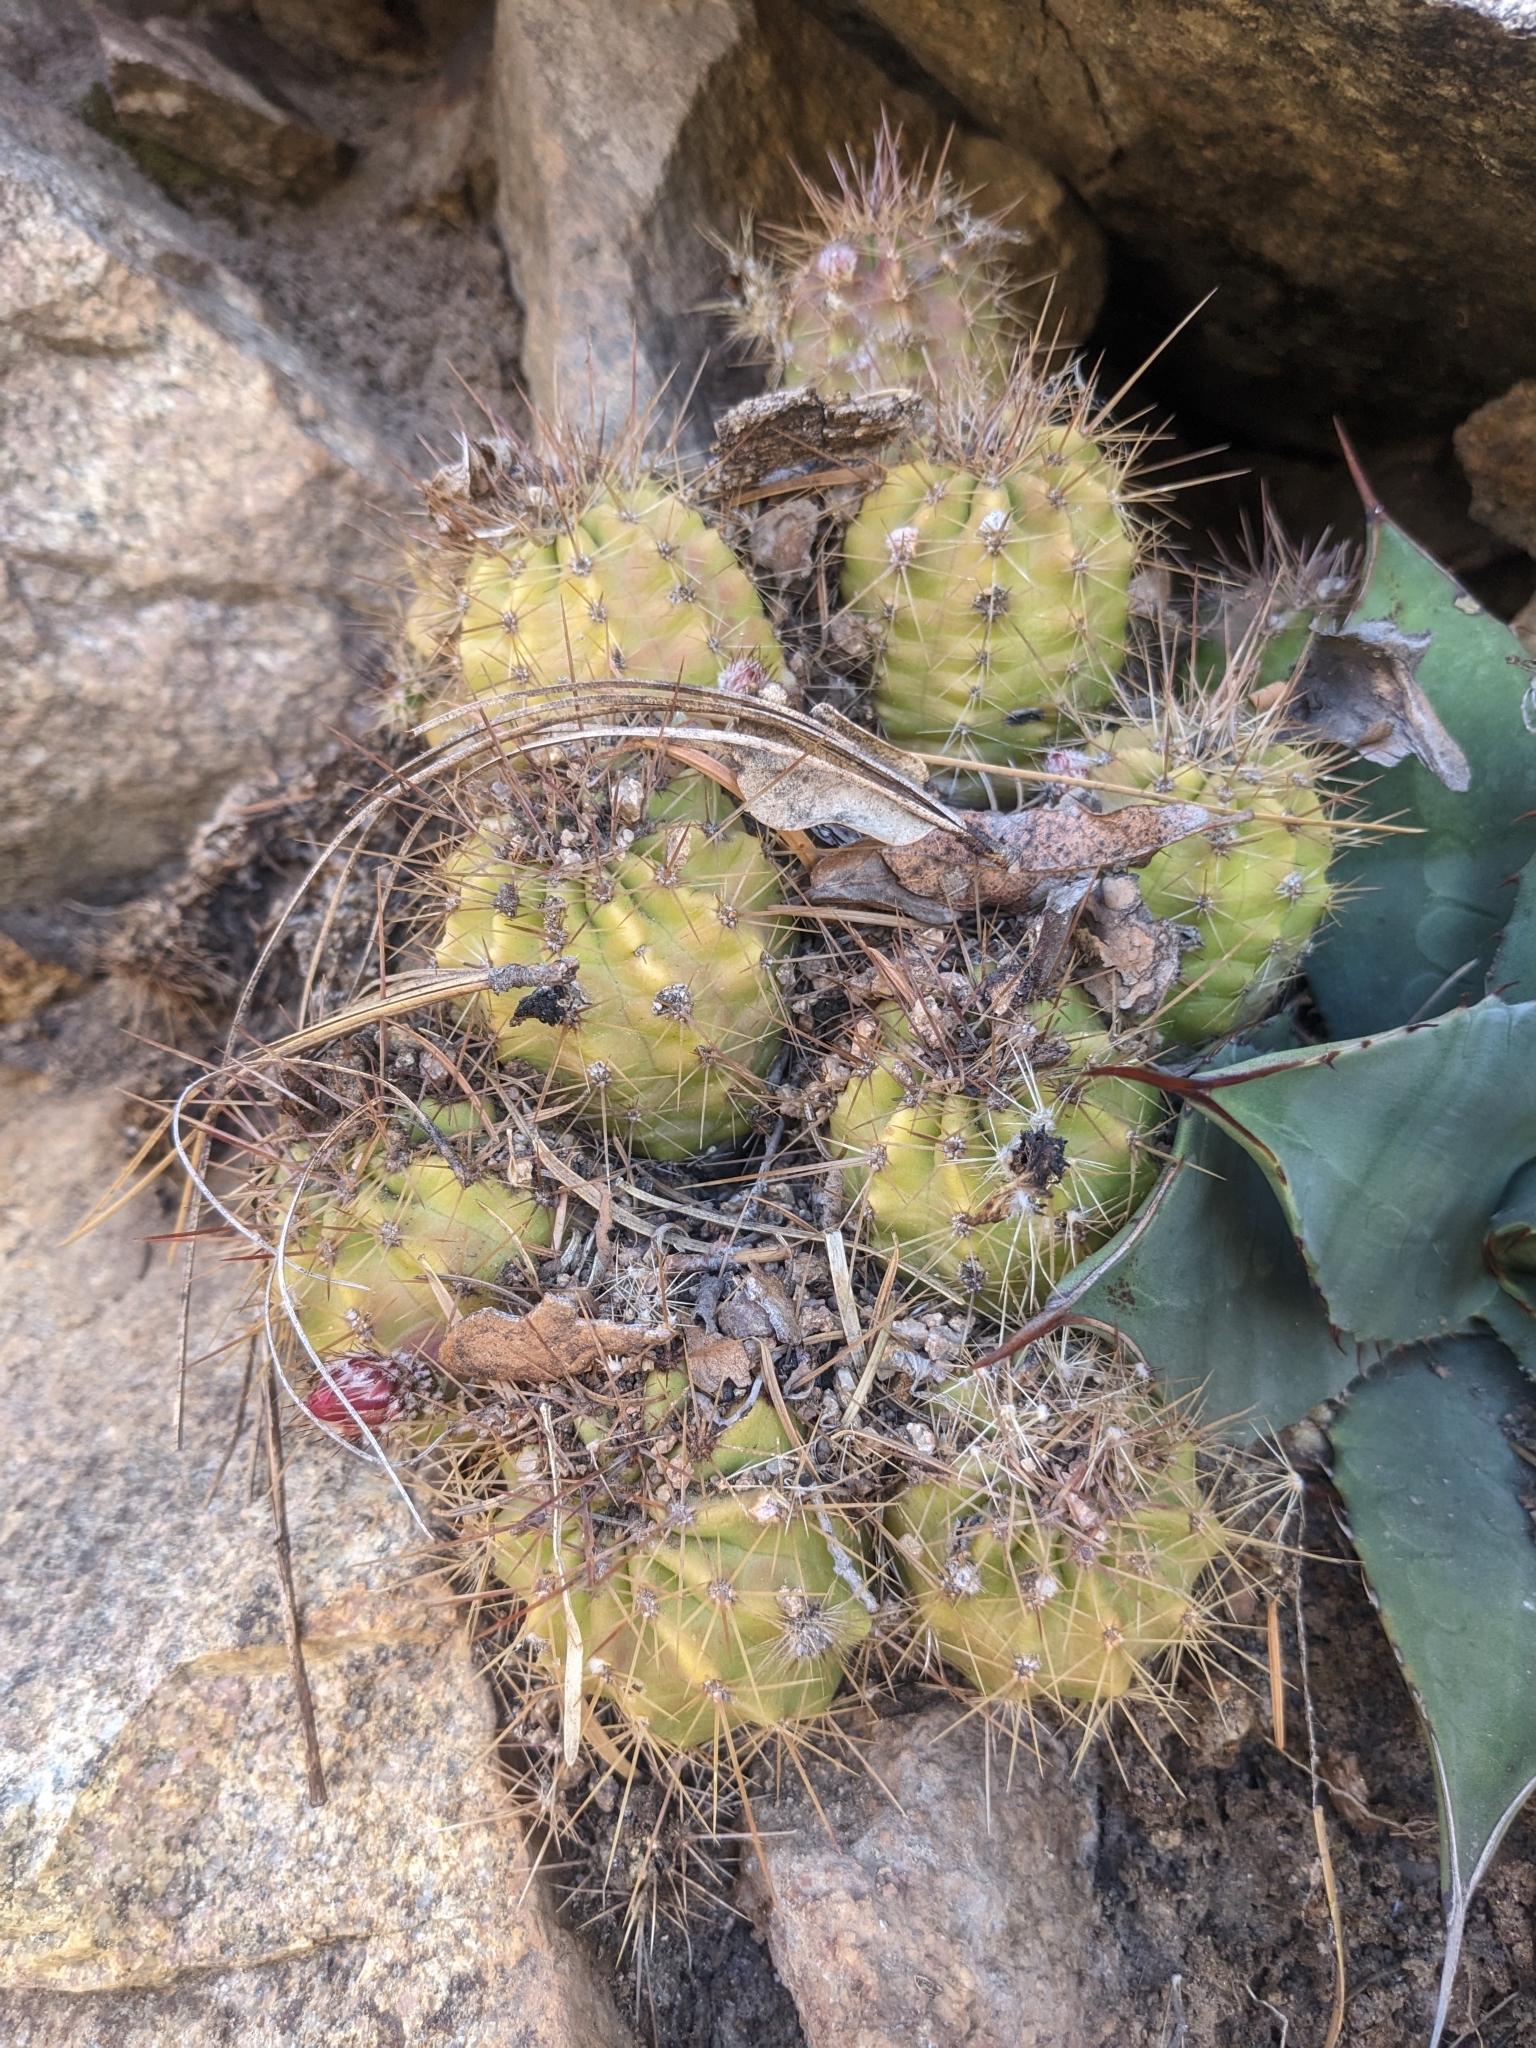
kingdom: Plantae
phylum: Tracheophyta
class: Magnoliopsida
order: Caryophyllales
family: Cactaceae
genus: Echinocereus
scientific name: Echinocereus coccineus
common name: Scarlet hedgehog cactus
